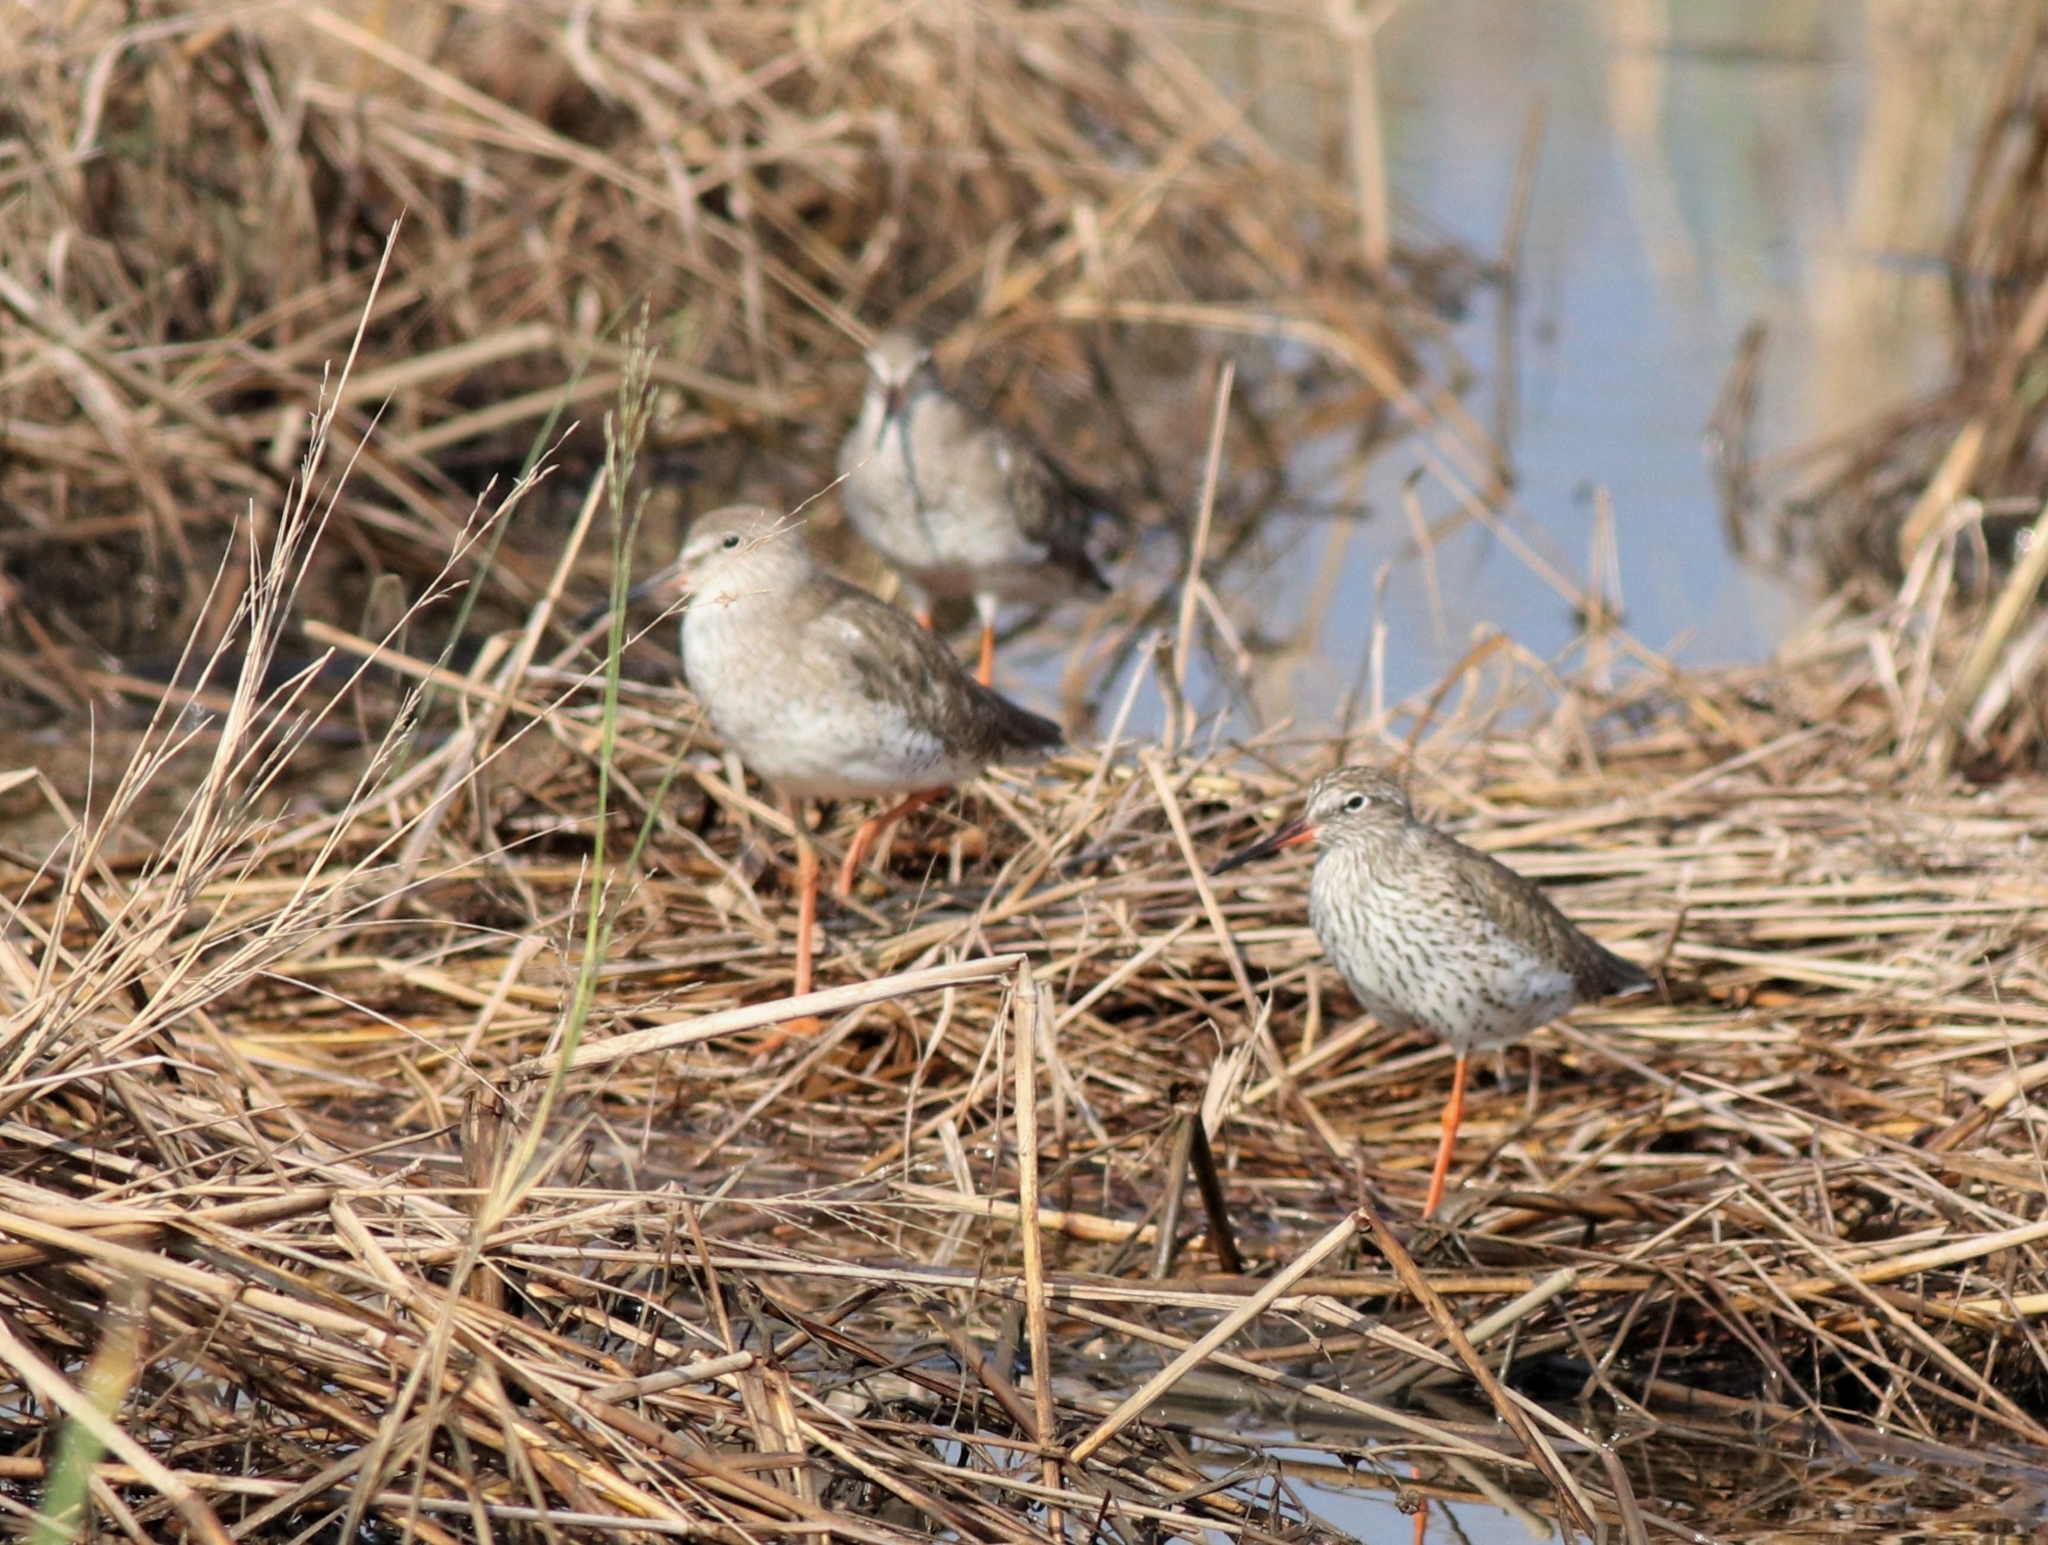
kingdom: Animalia
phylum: Chordata
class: Aves
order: Charadriiformes
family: Scolopacidae
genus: Tringa
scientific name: Tringa totanus
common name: Common redshank
